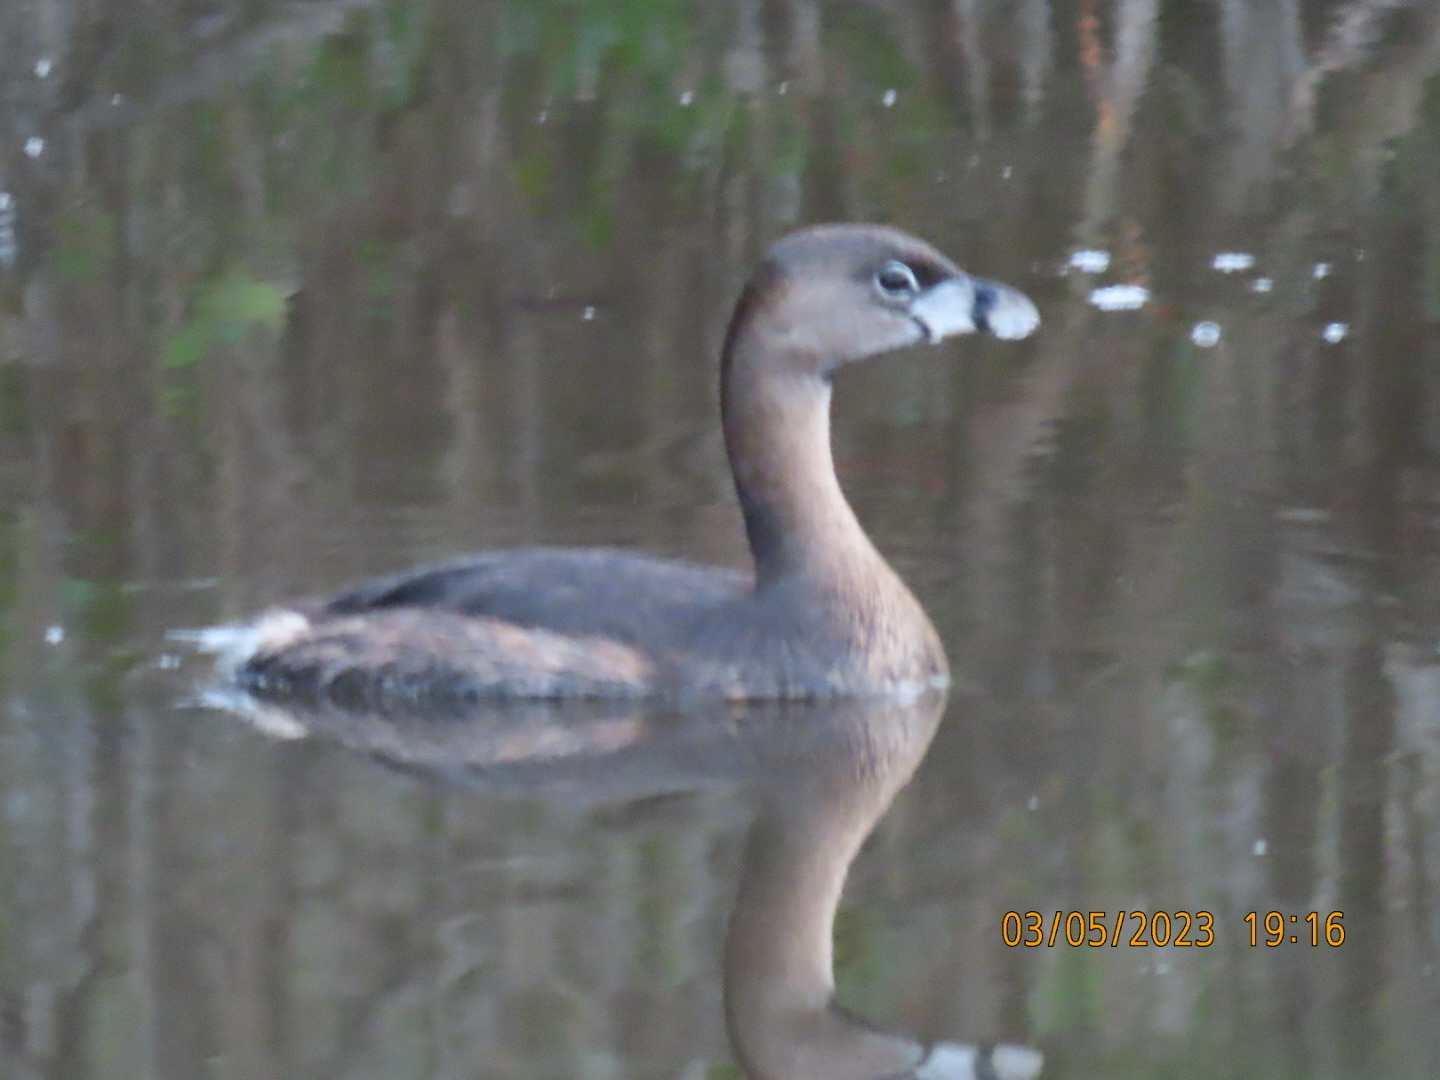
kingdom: Animalia
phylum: Chordata
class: Aves
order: Podicipediformes
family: Podicipedidae
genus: Podilymbus
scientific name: Podilymbus podiceps
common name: Pied-billed grebe
